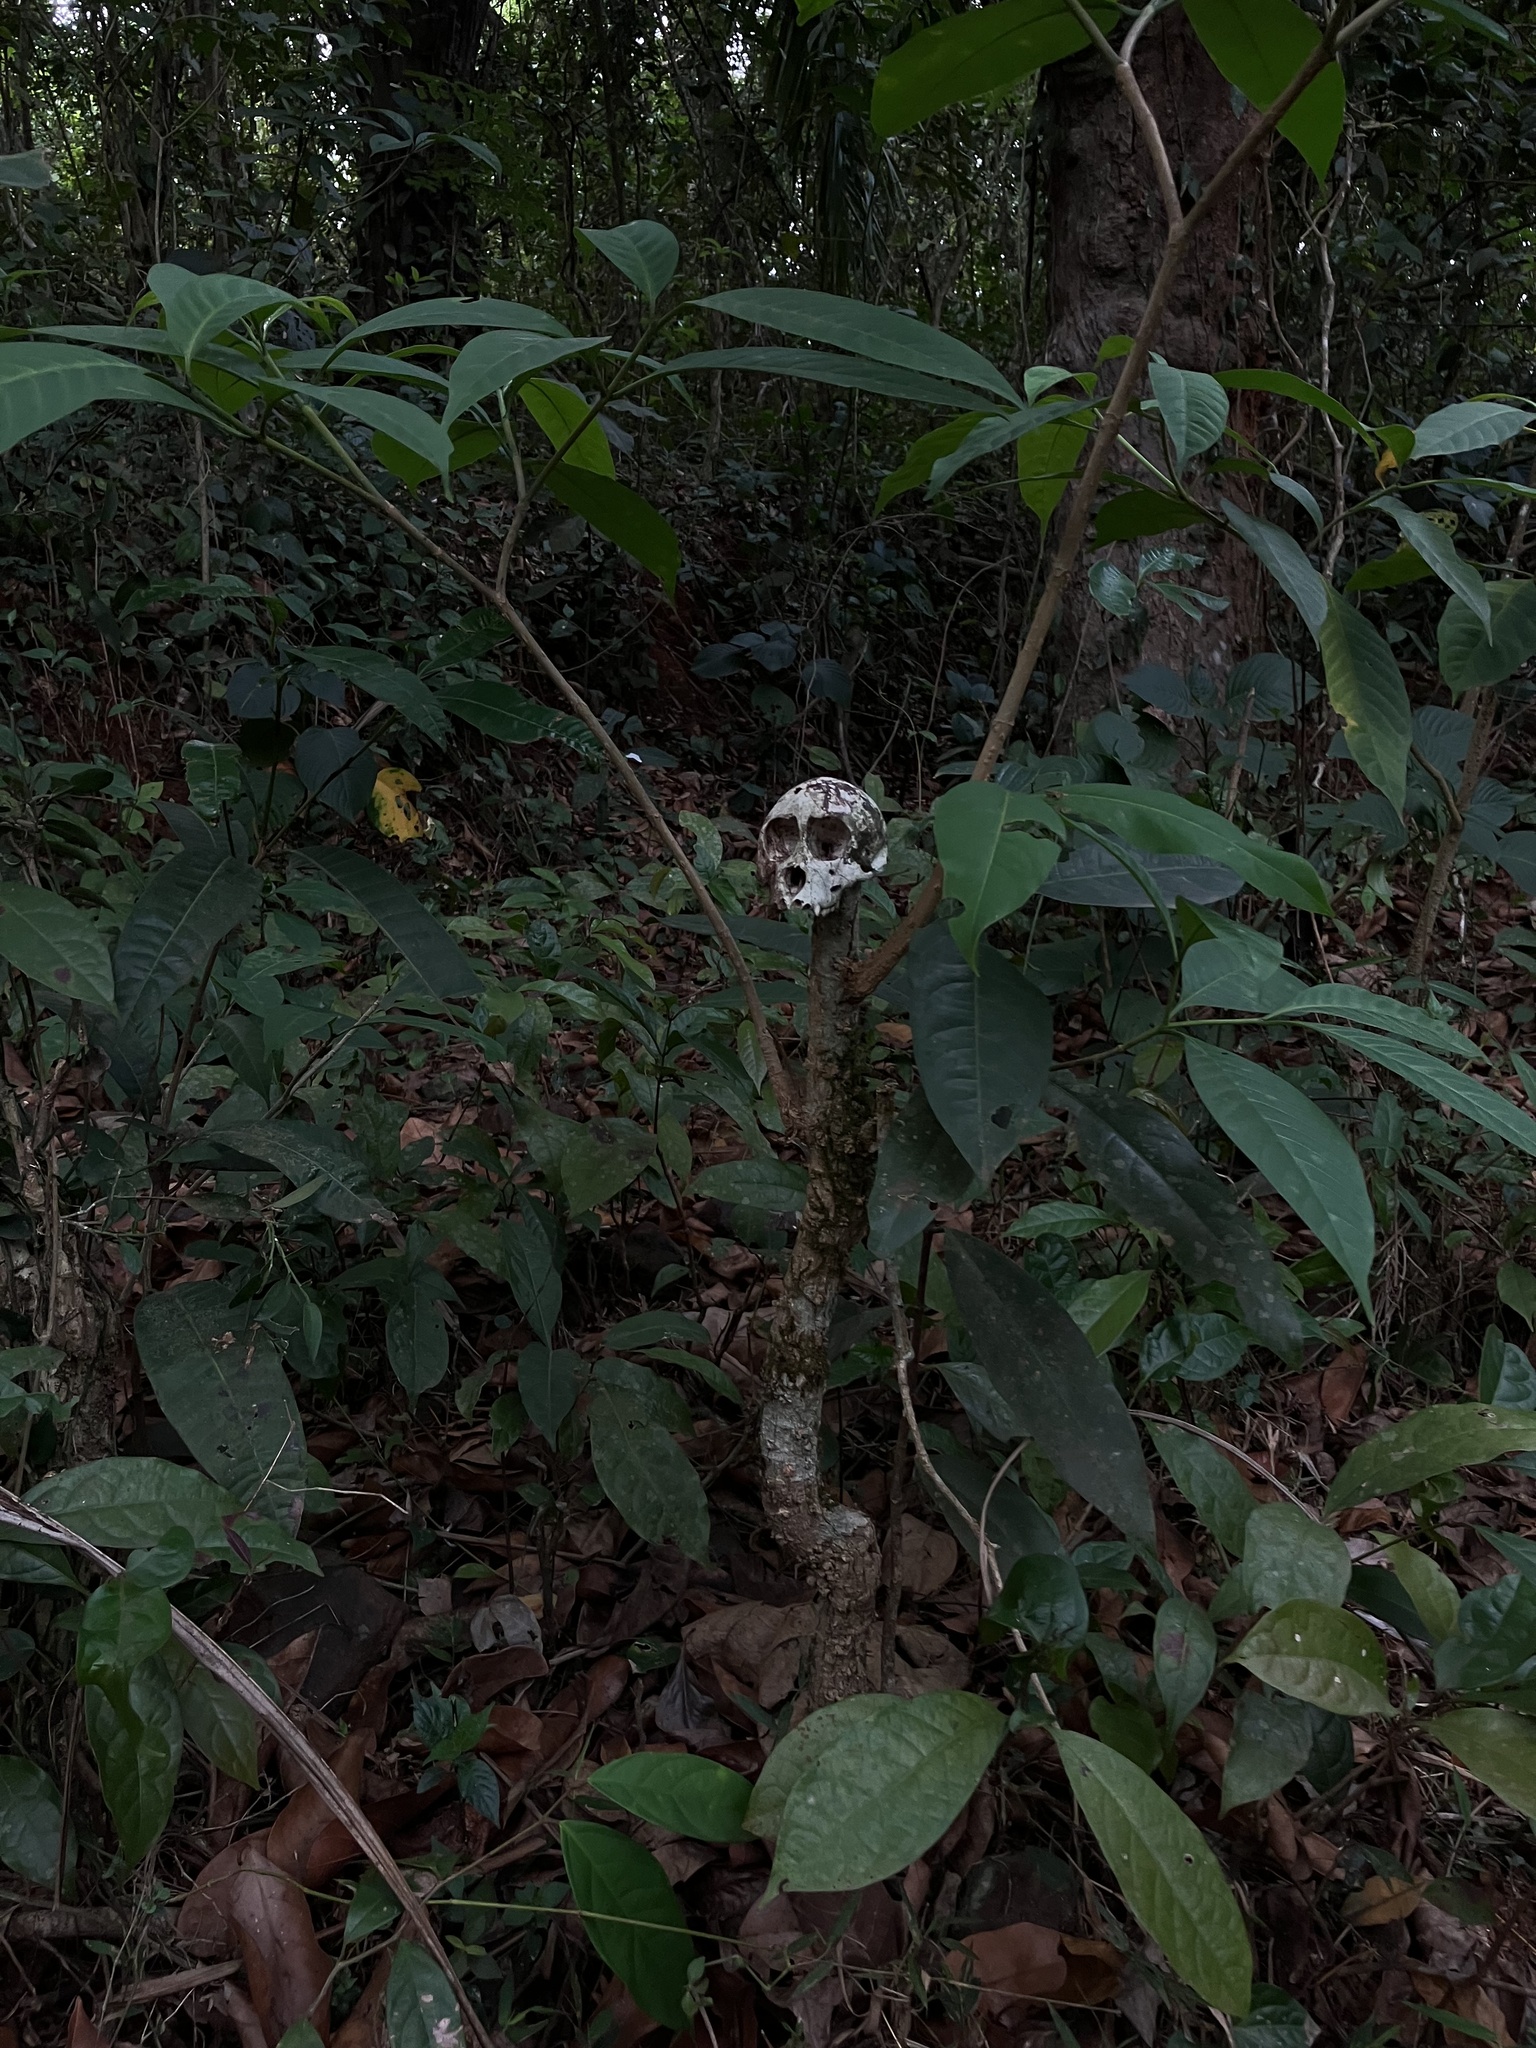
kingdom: Animalia
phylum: Chordata
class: Mammalia
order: Primates
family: Cercopithecidae
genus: Macaca
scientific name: Macaca radiata
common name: Bonnet macaque
